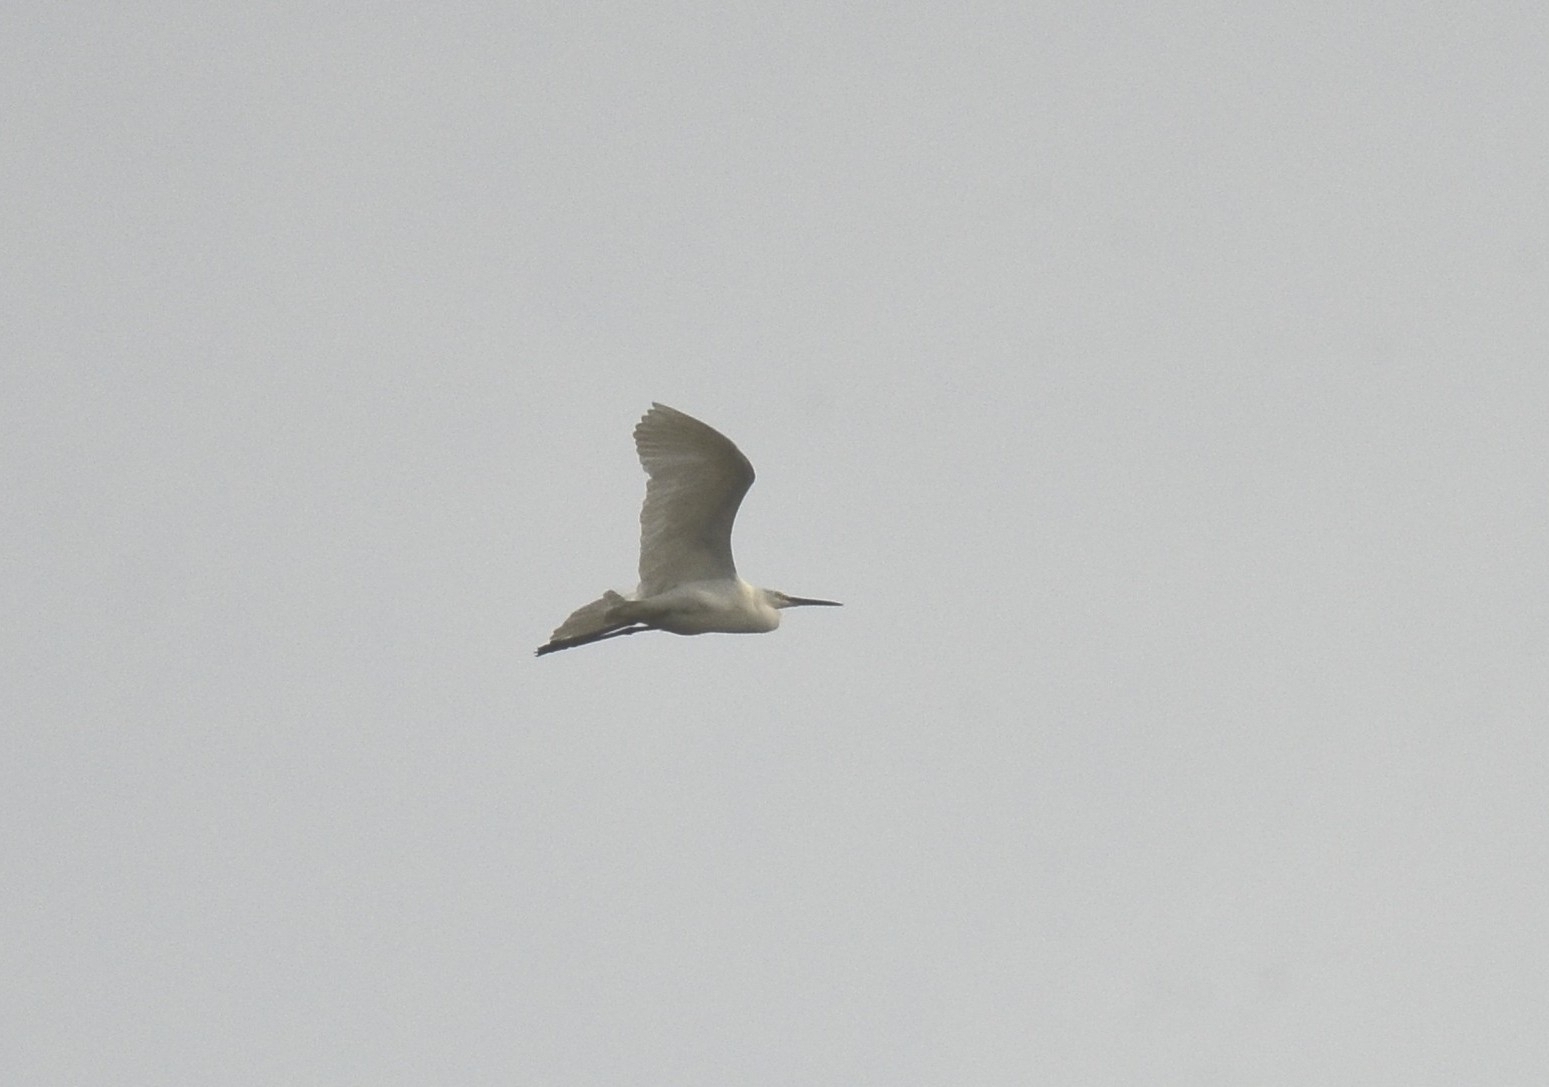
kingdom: Animalia
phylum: Chordata
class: Aves
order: Pelecaniformes
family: Ardeidae
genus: Egretta
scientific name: Egretta garzetta
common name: Little egret
